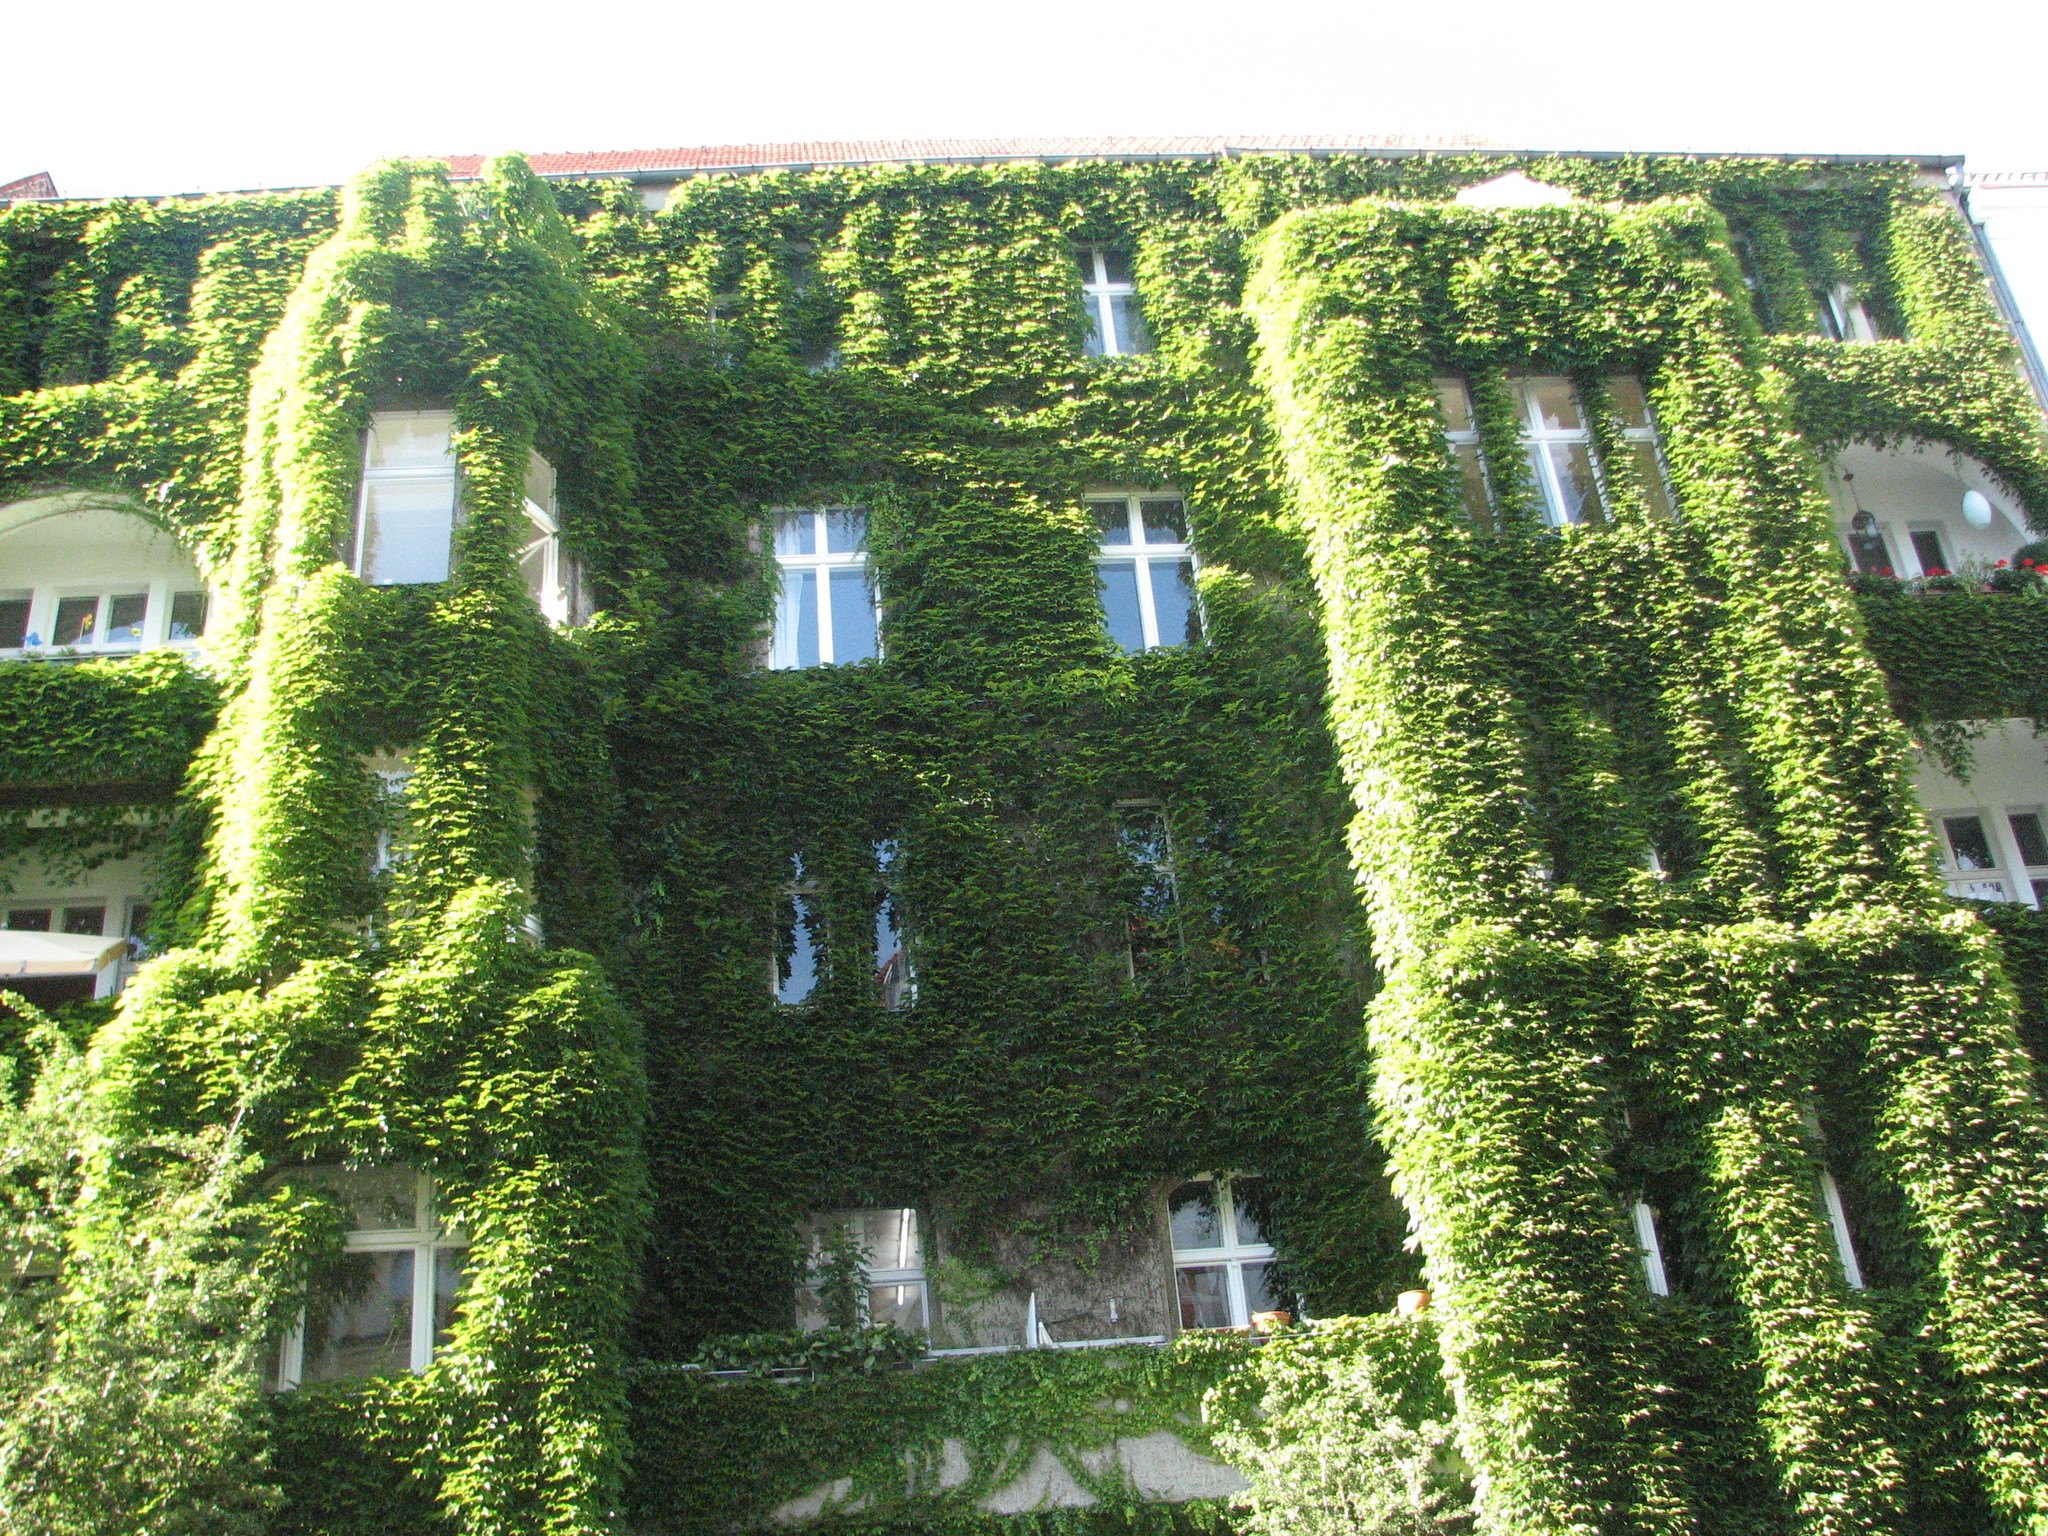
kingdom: Plantae
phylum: Tracheophyta
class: Magnoliopsida
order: Vitales
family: Vitaceae
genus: Parthenocissus
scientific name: Parthenocissus tricuspidata
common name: Boston ivy
